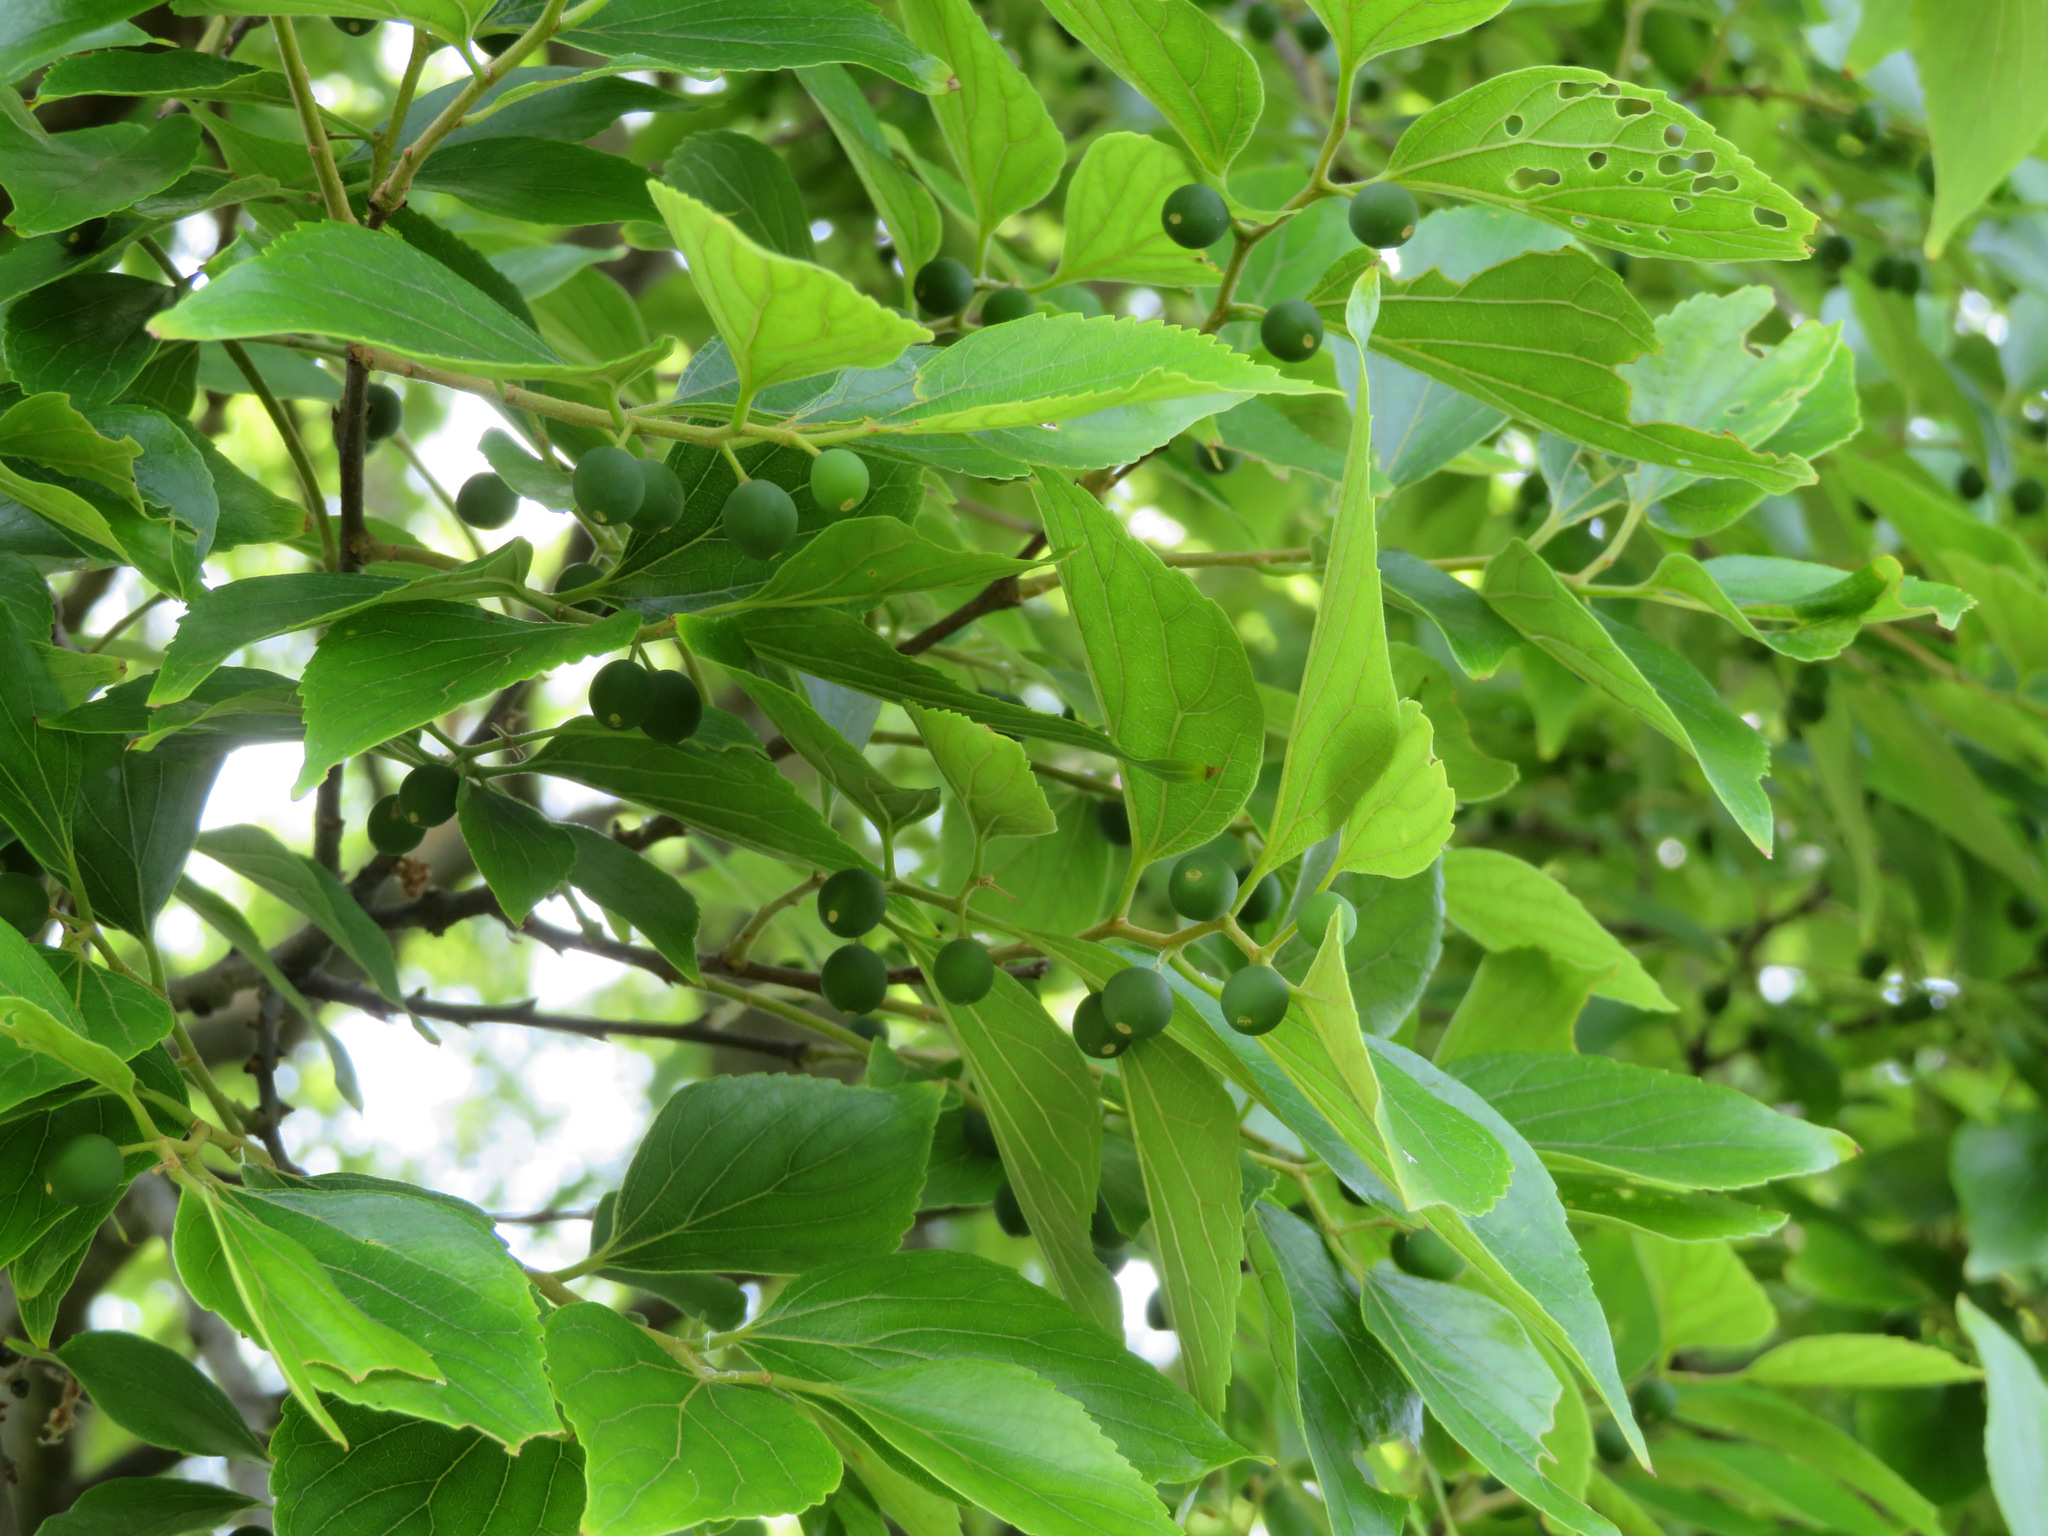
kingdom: Plantae
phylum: Tracheophyta
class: Magnoliopsida
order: Rosales
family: Cannabaceae
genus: Celtis
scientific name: Celtis sinensis
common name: Chinese hackberry
